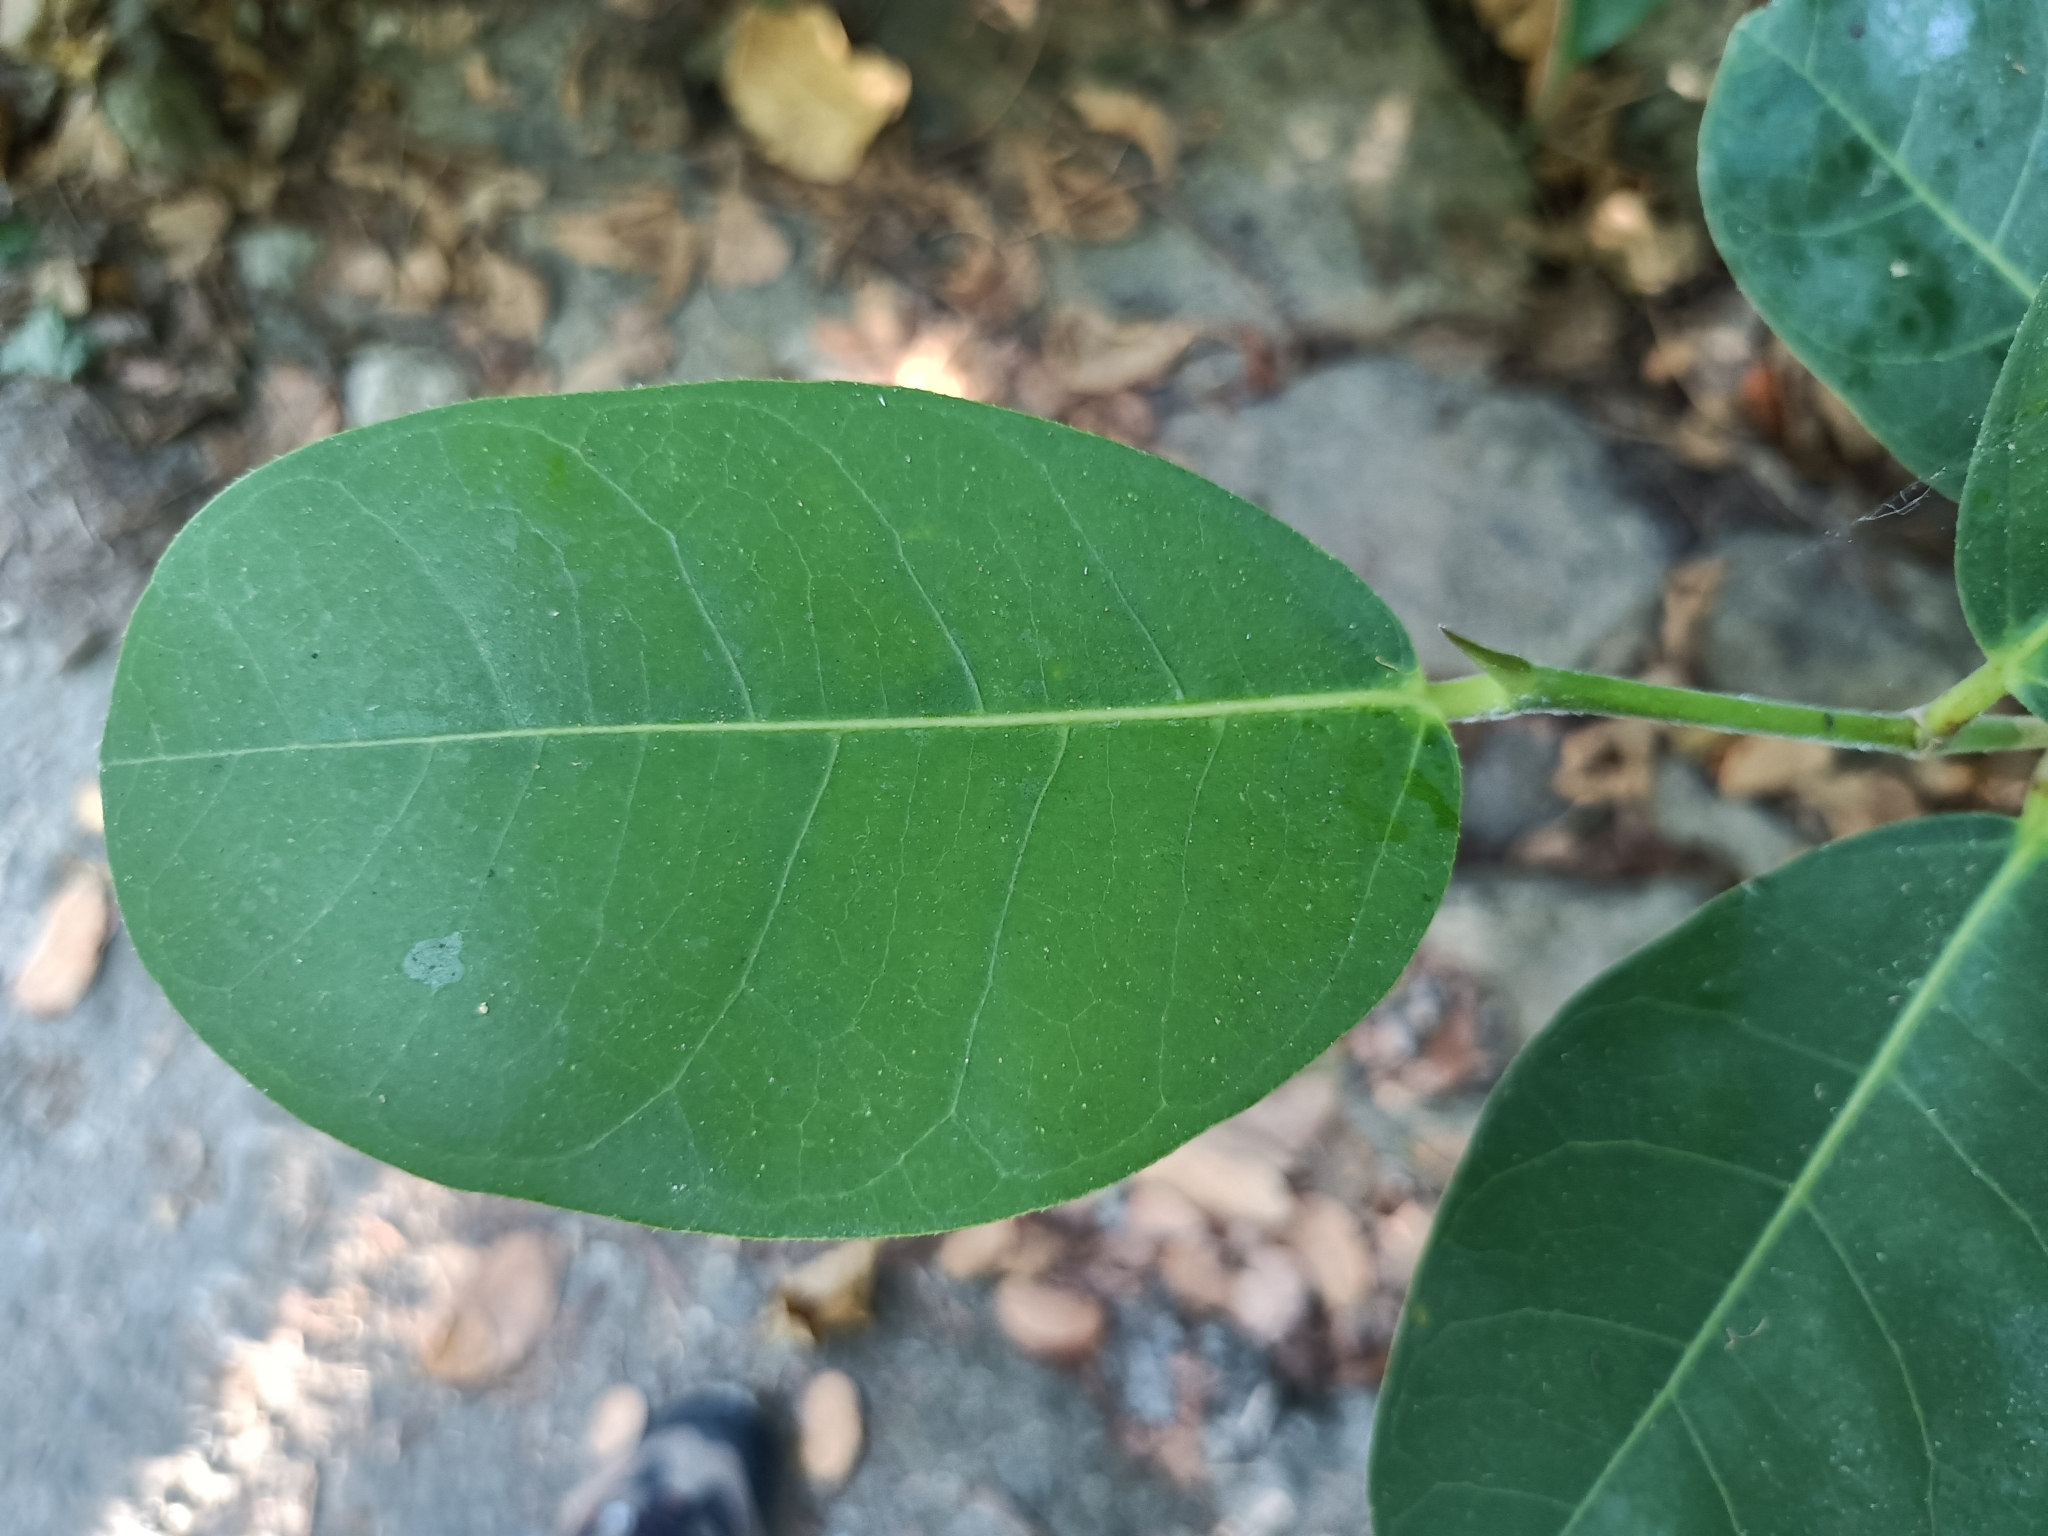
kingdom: Plantae
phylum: Tracheophyta
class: Magnoliopsida
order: Rosales
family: Moraceae
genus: Ficus
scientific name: Ficus tinctoria
